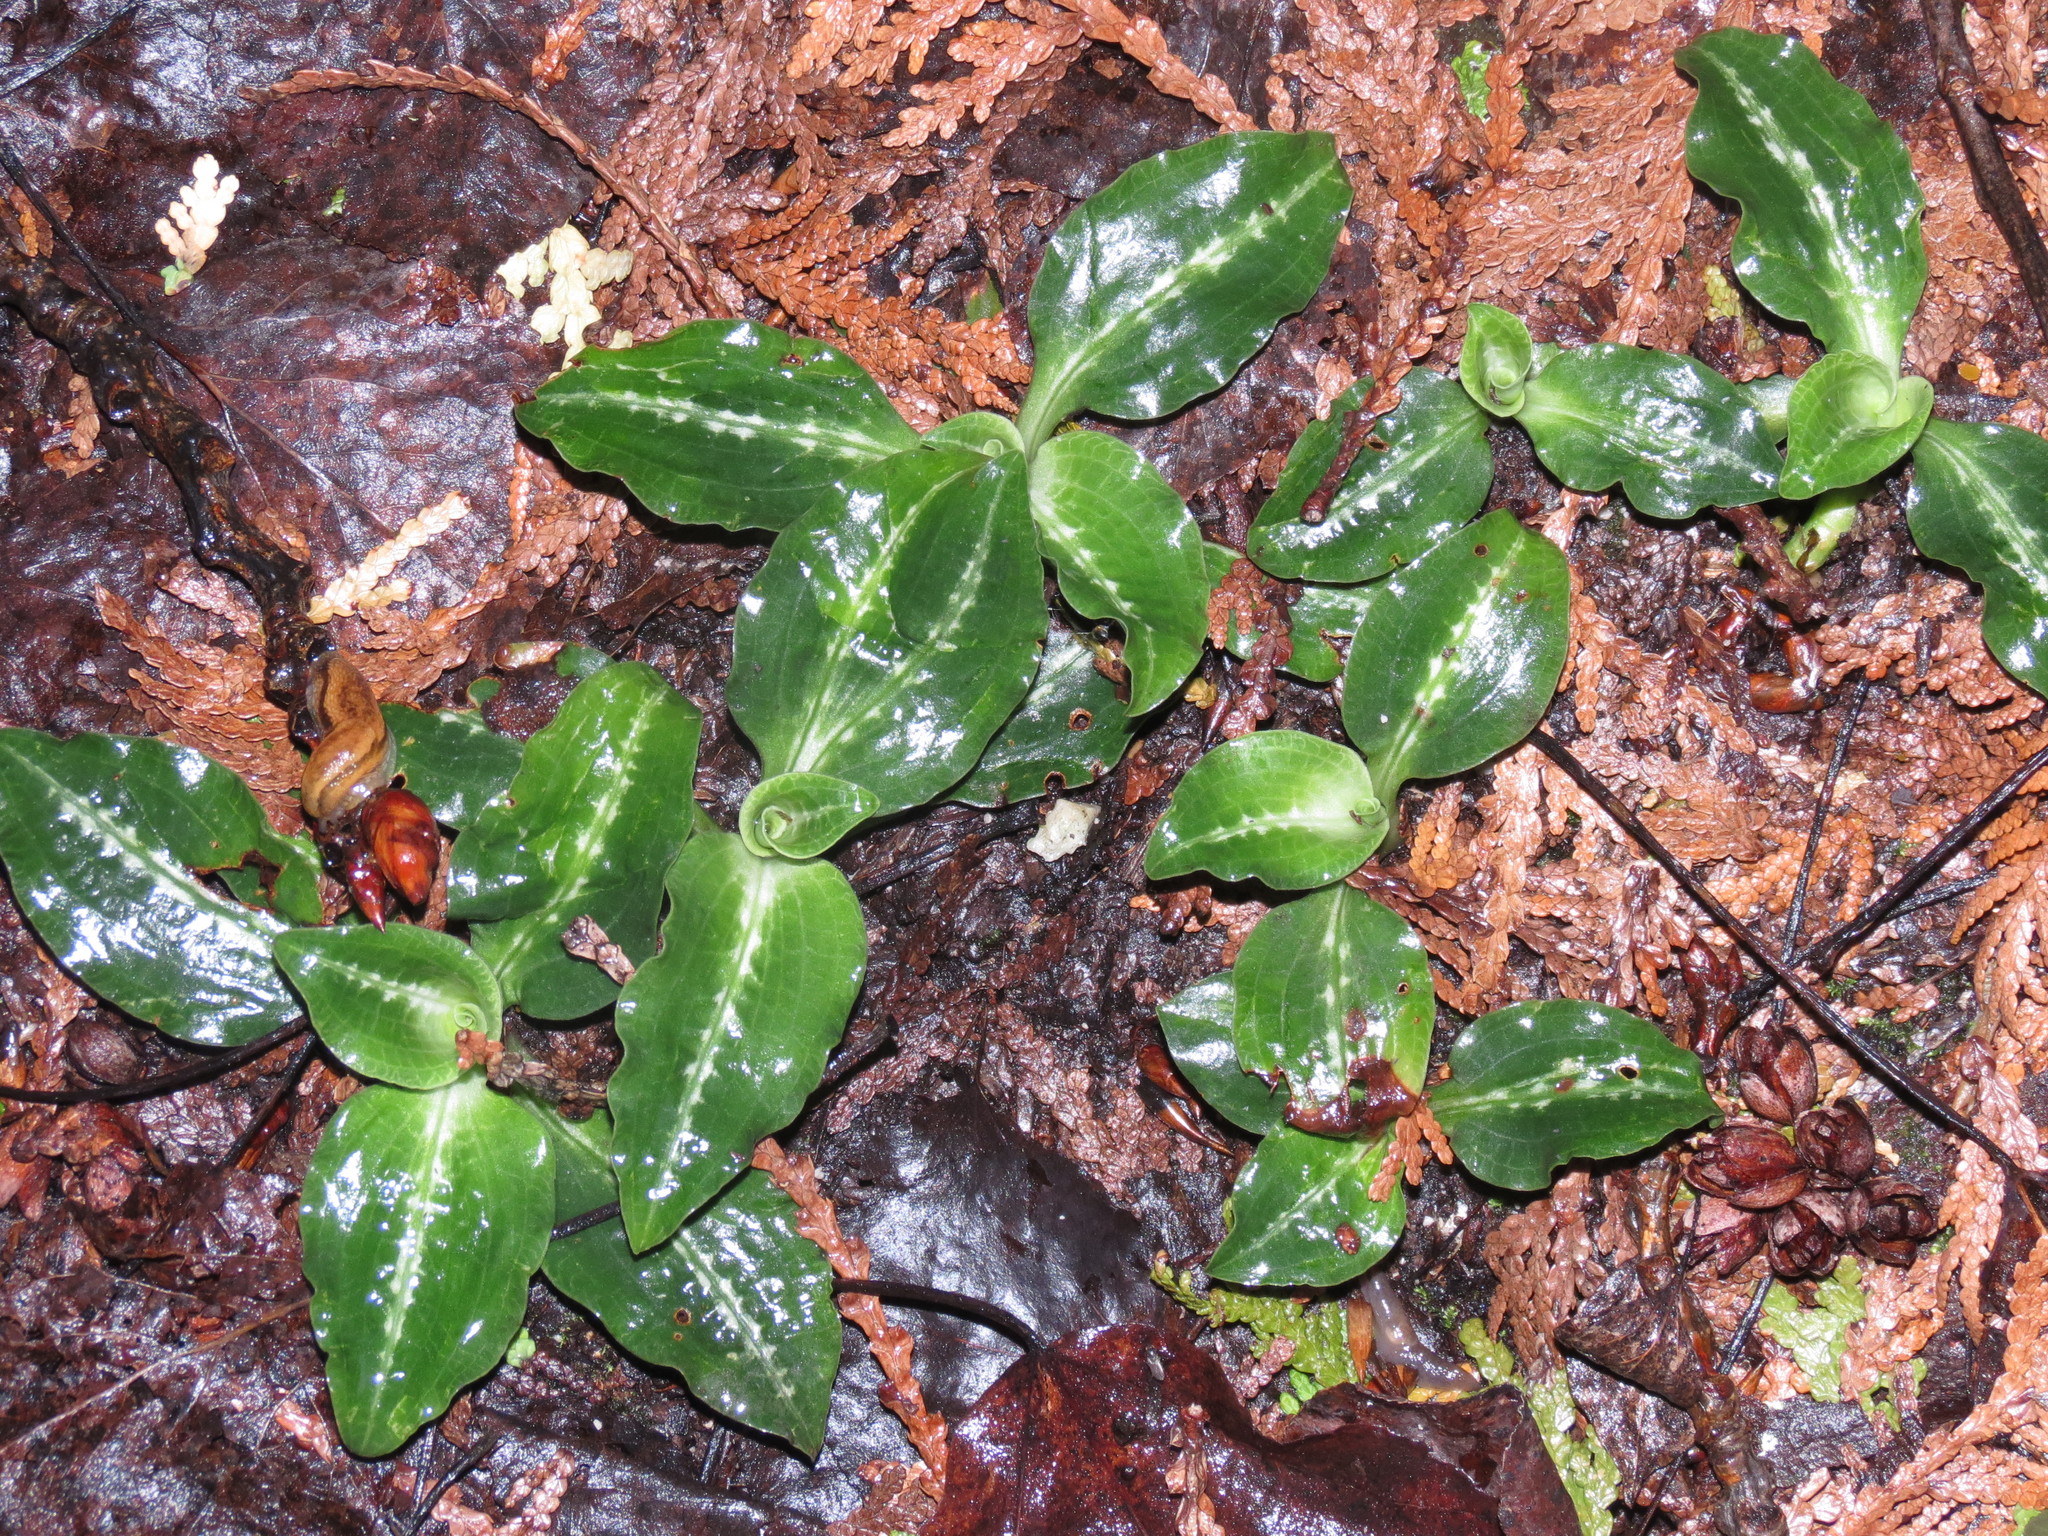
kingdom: Plantae
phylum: Tracheophyta
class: Liliopsida
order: Asparagales
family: Orchidaceae
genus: Goodyera
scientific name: Goodyera oblongifolia
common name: Giant rattlesnake-plantain
